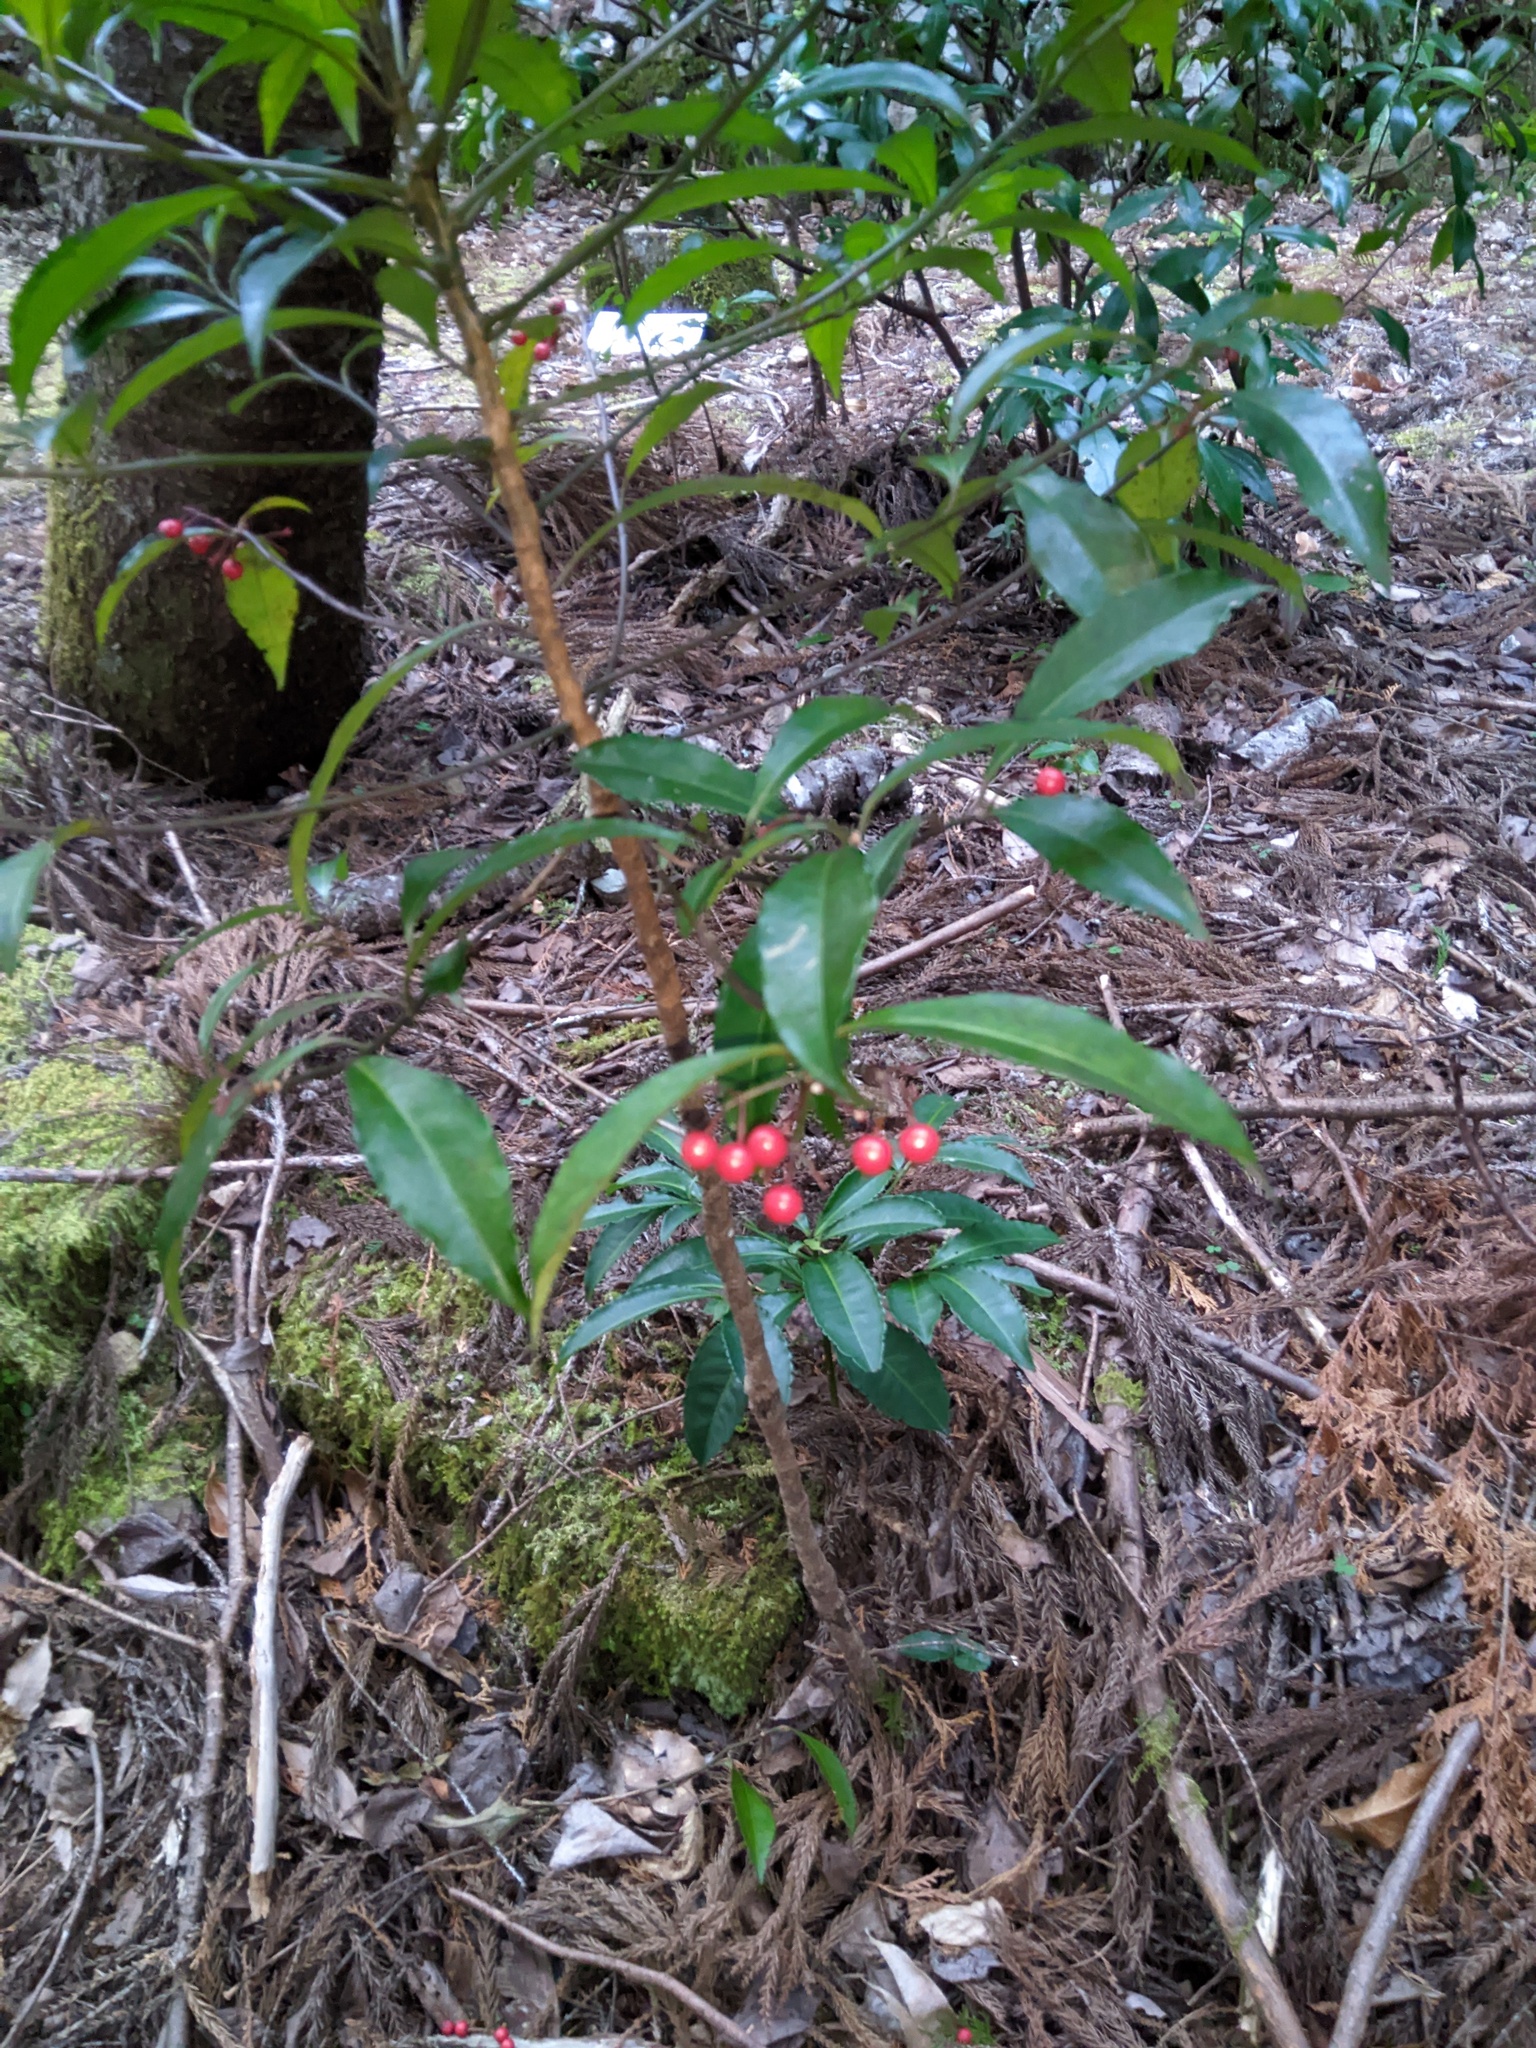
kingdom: Plantae
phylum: Tracheophyta
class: Magnoliopsida
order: Ericales
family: Primulaceae
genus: Ardisia
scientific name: Ardisia crenata
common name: Hen's eyes
